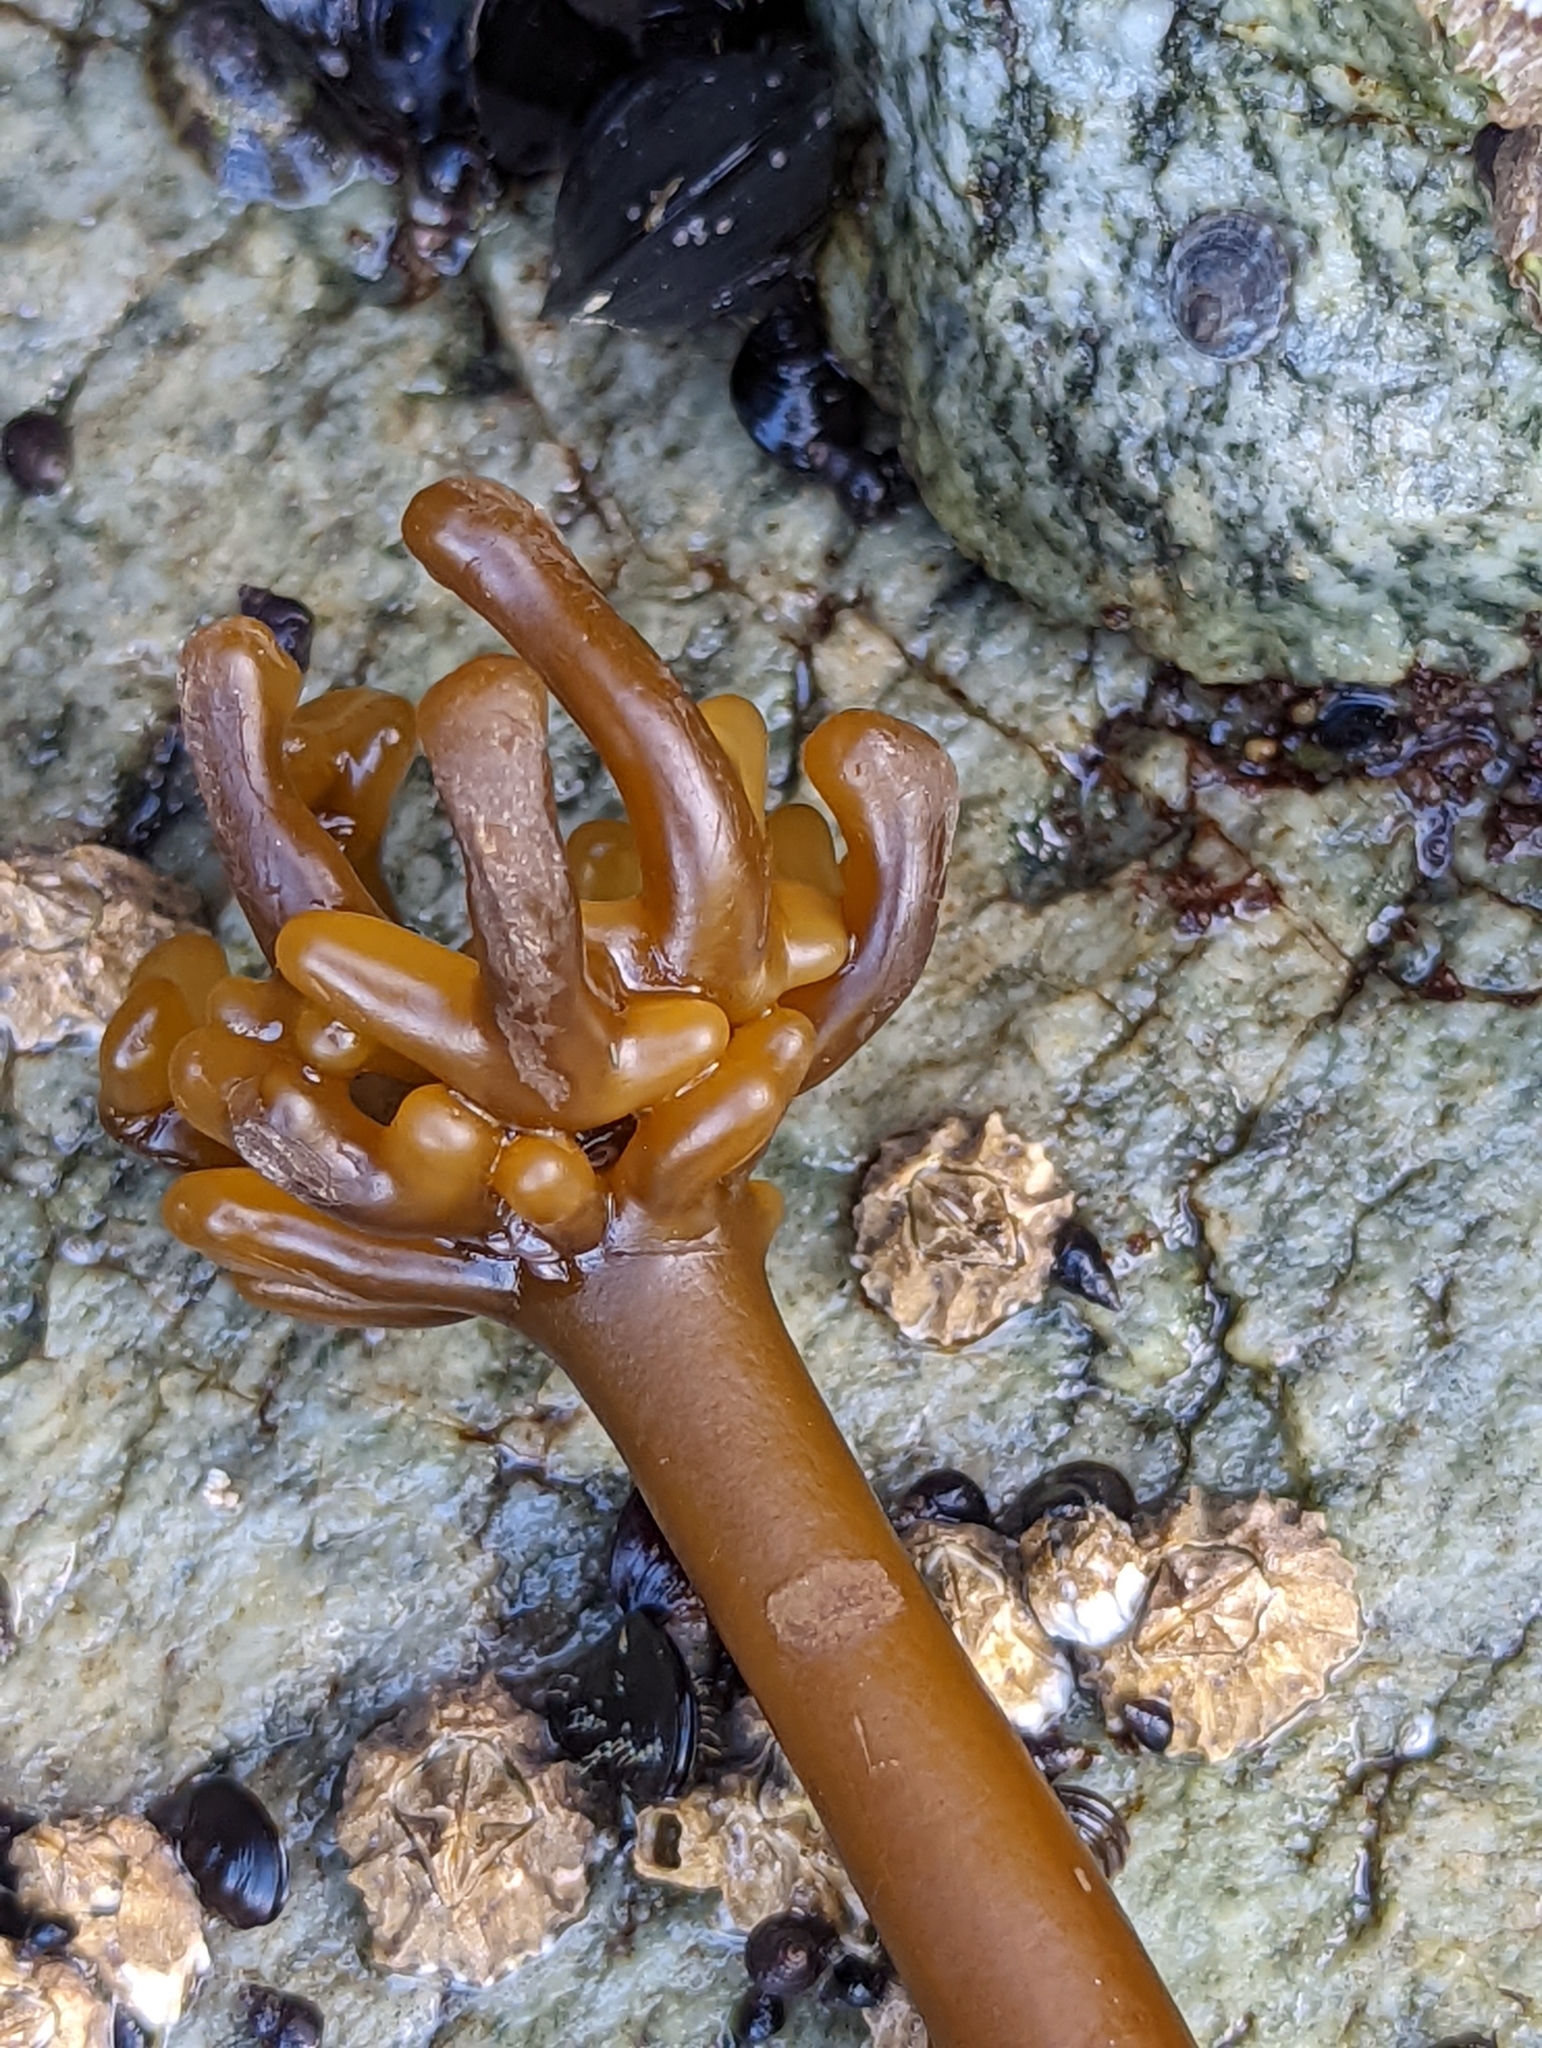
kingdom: Chromista
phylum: Ochrophyta
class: Phaeophyceae
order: Laminariales
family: Laminariaceae
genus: Nereocystis
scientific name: Nereocystis luetkeana
